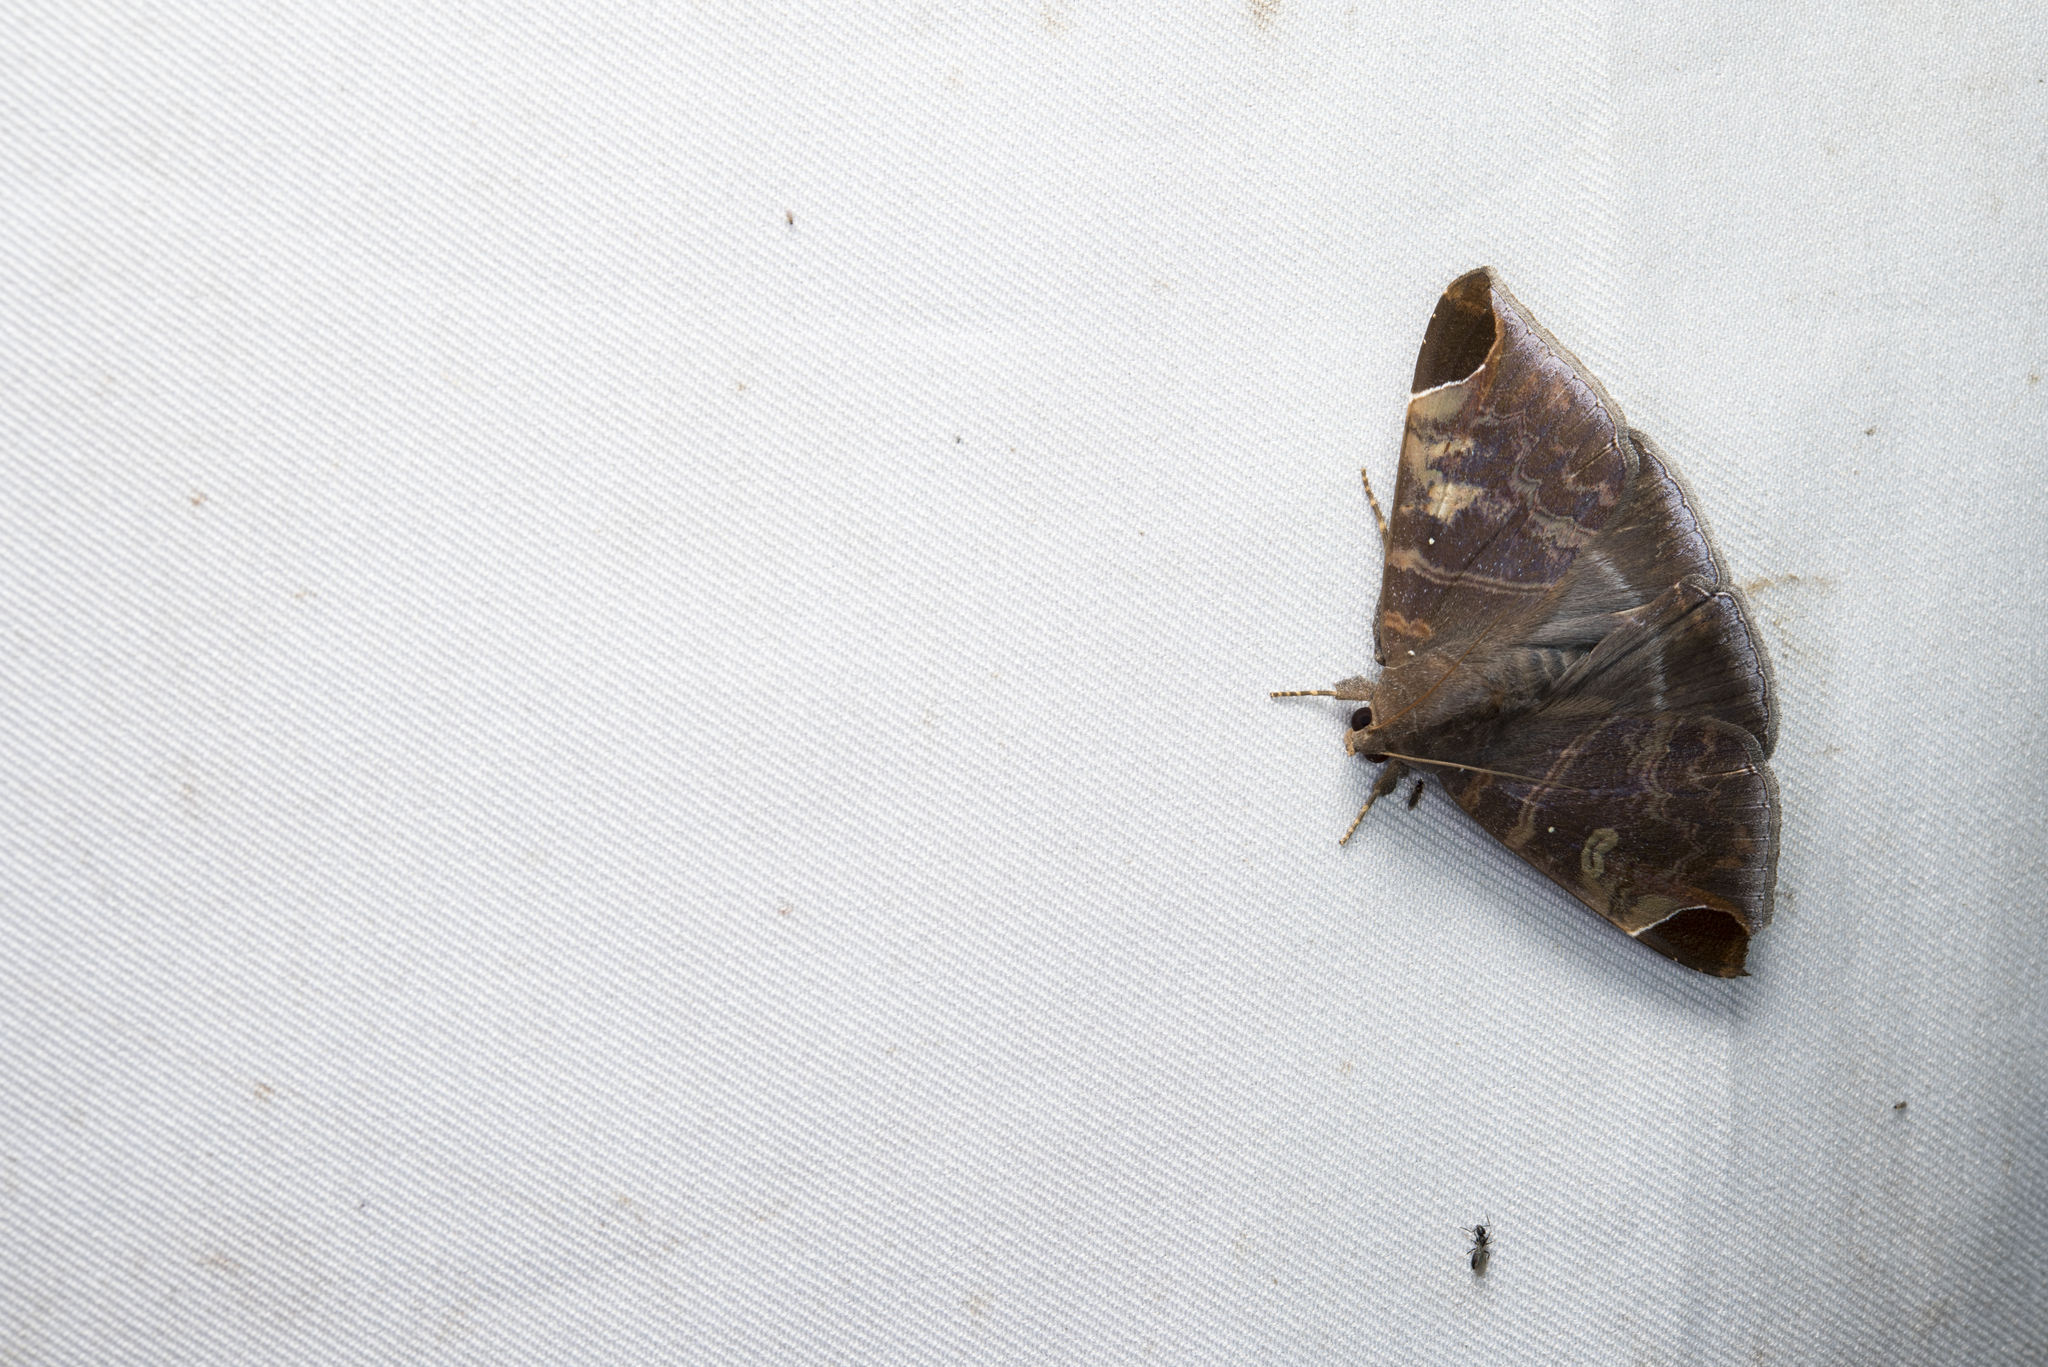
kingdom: Animalia
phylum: Arthropoda
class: Insecta
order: Lepidoptera
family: Erebidae
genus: Pindara
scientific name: Pindara illibata
